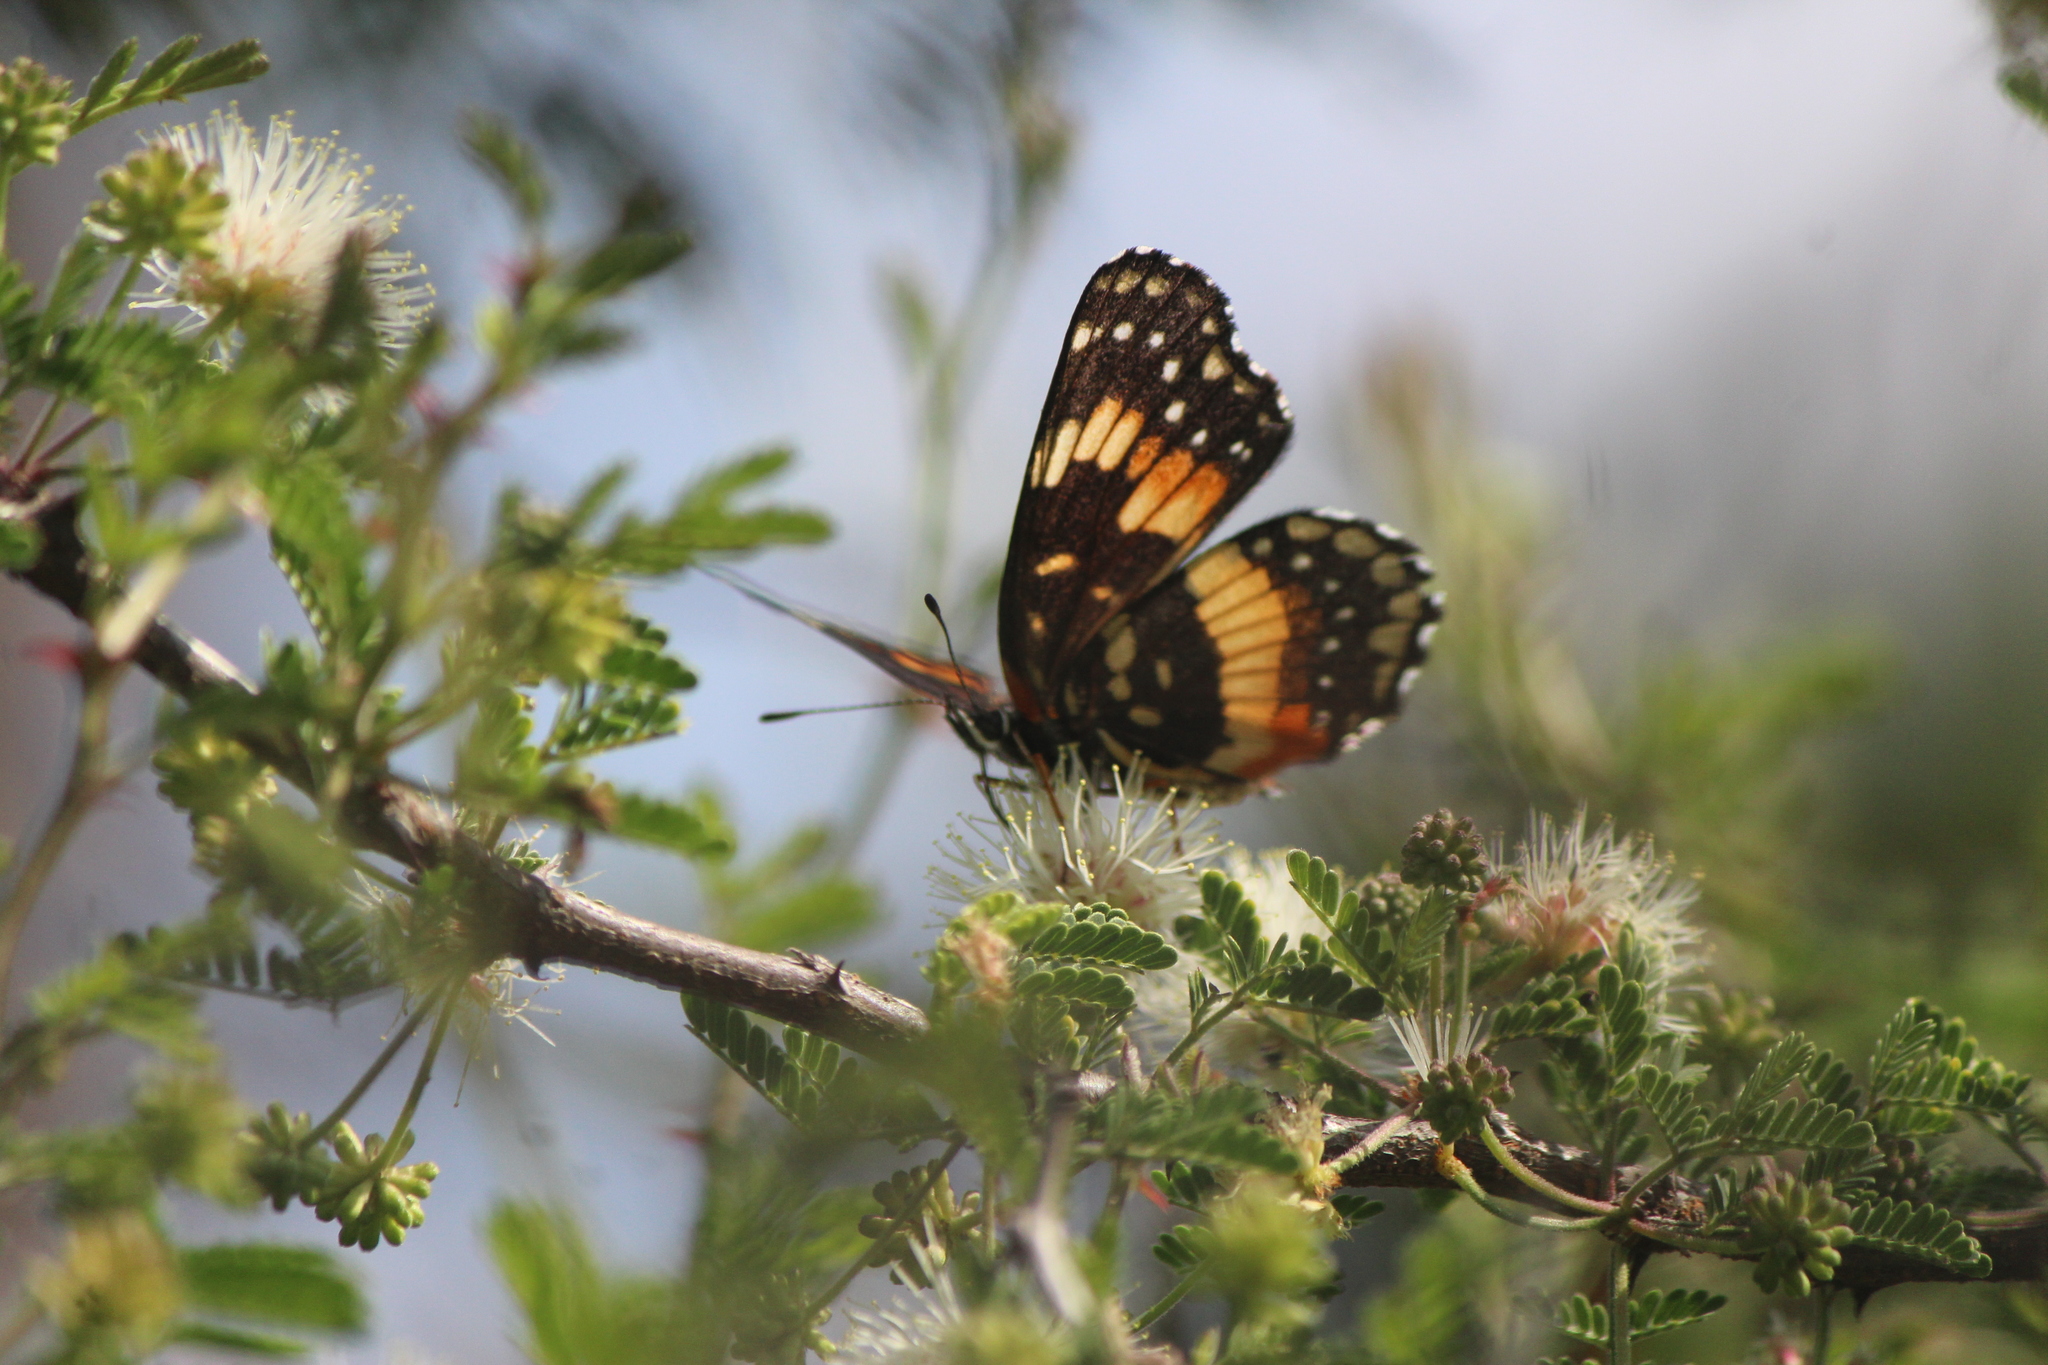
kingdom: Animalia
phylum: Arthropoda
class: Insecta
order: Lepidoptera
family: Nymphalidae
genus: Chlosyne
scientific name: Chlosyne lacinia
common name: Bordered patch
